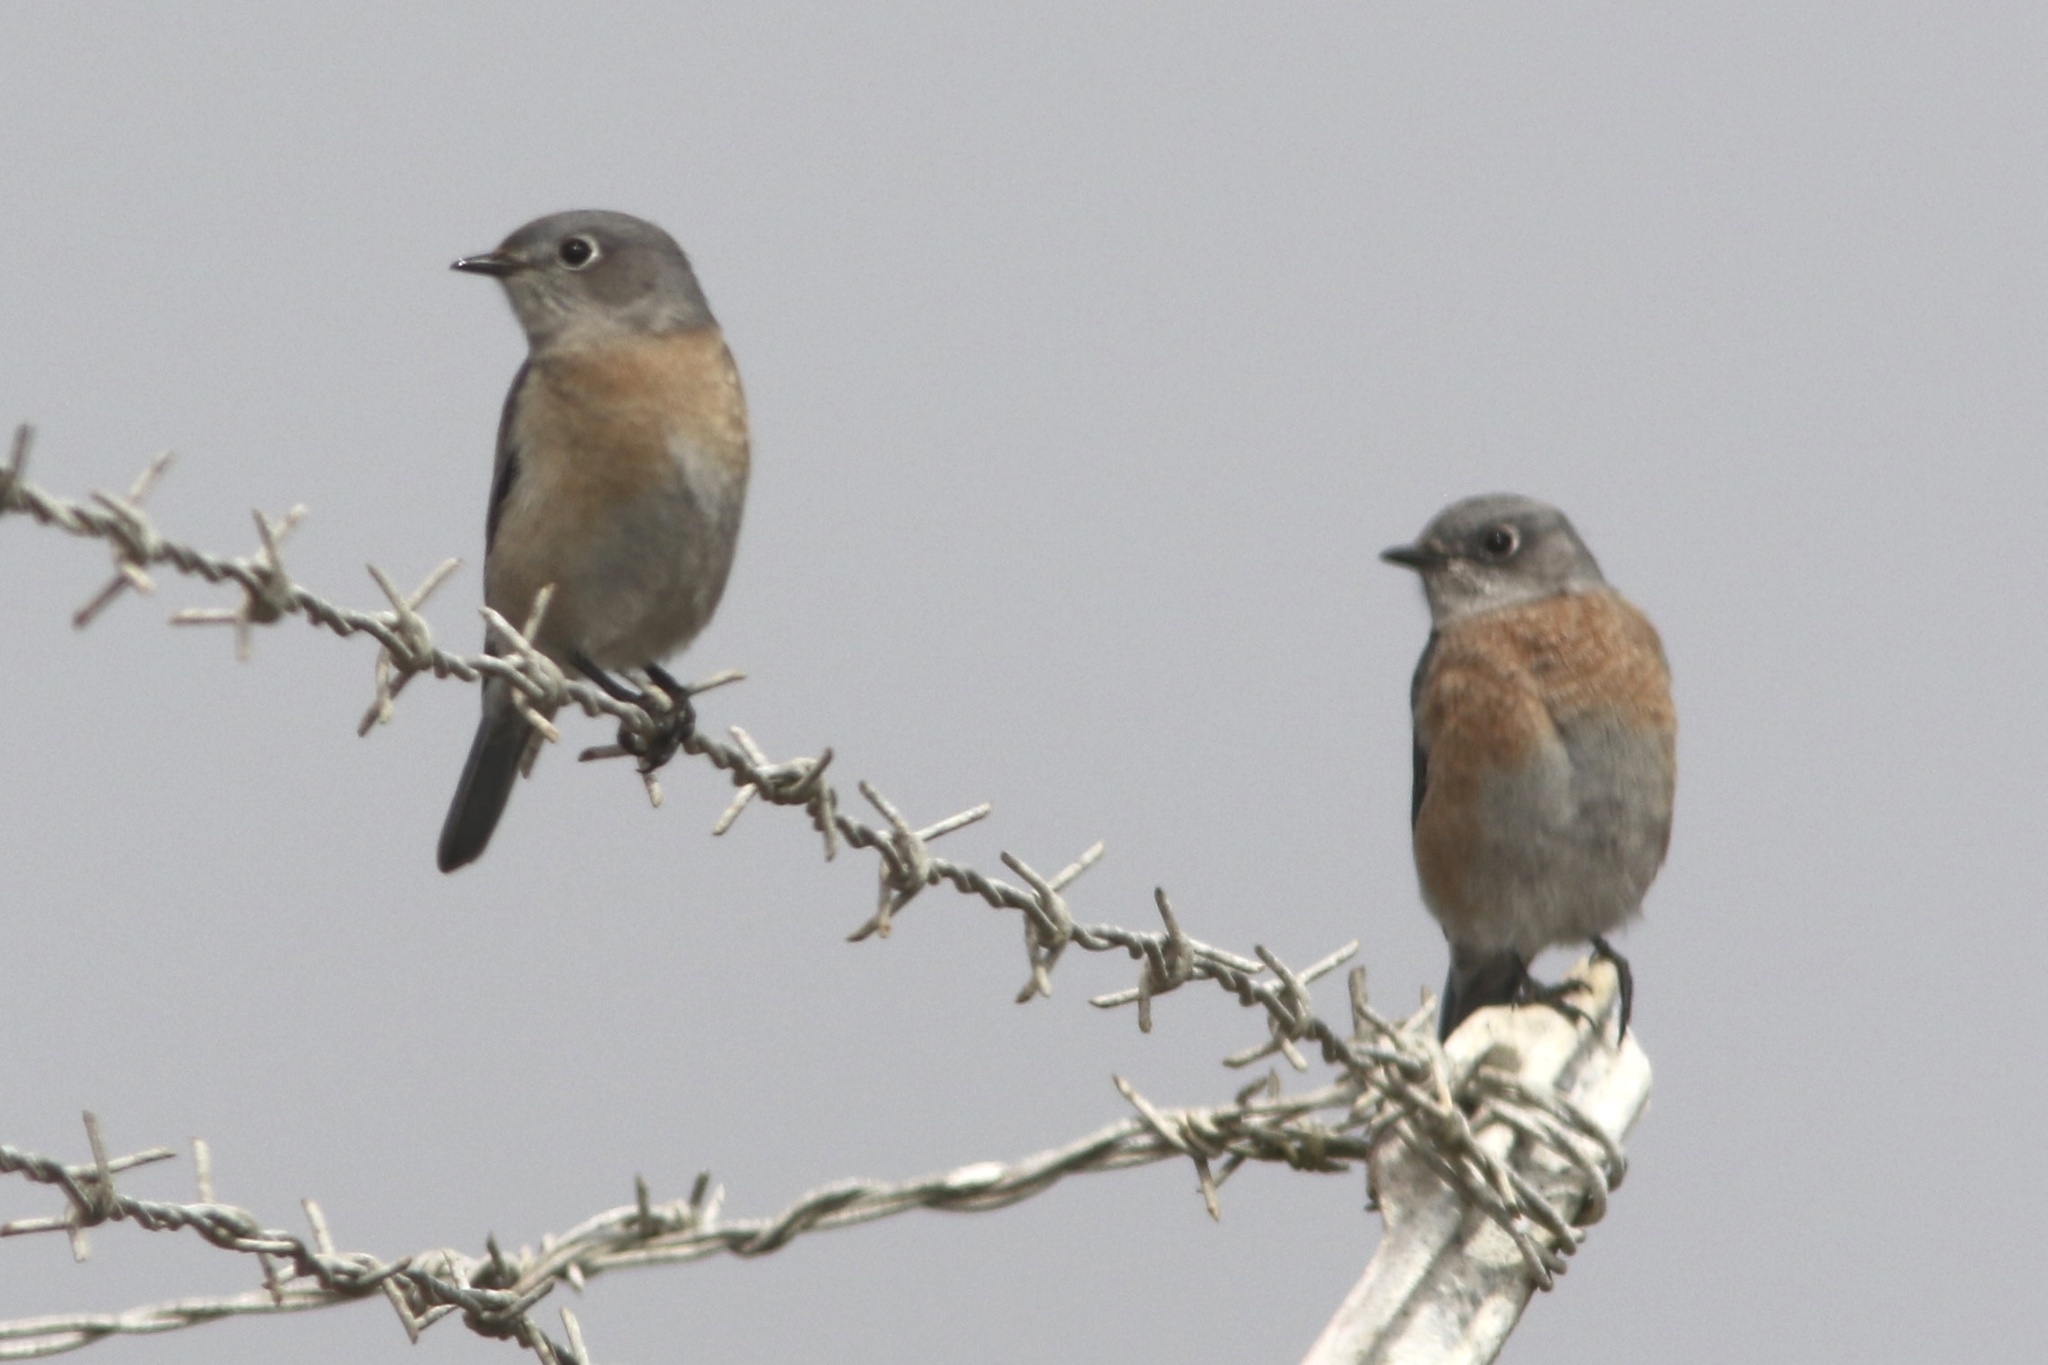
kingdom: Animalia
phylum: Chordata
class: Aves
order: Passeriformes
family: Turdidae
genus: Sialia
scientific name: Sialia mexicana
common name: Western bluebird
